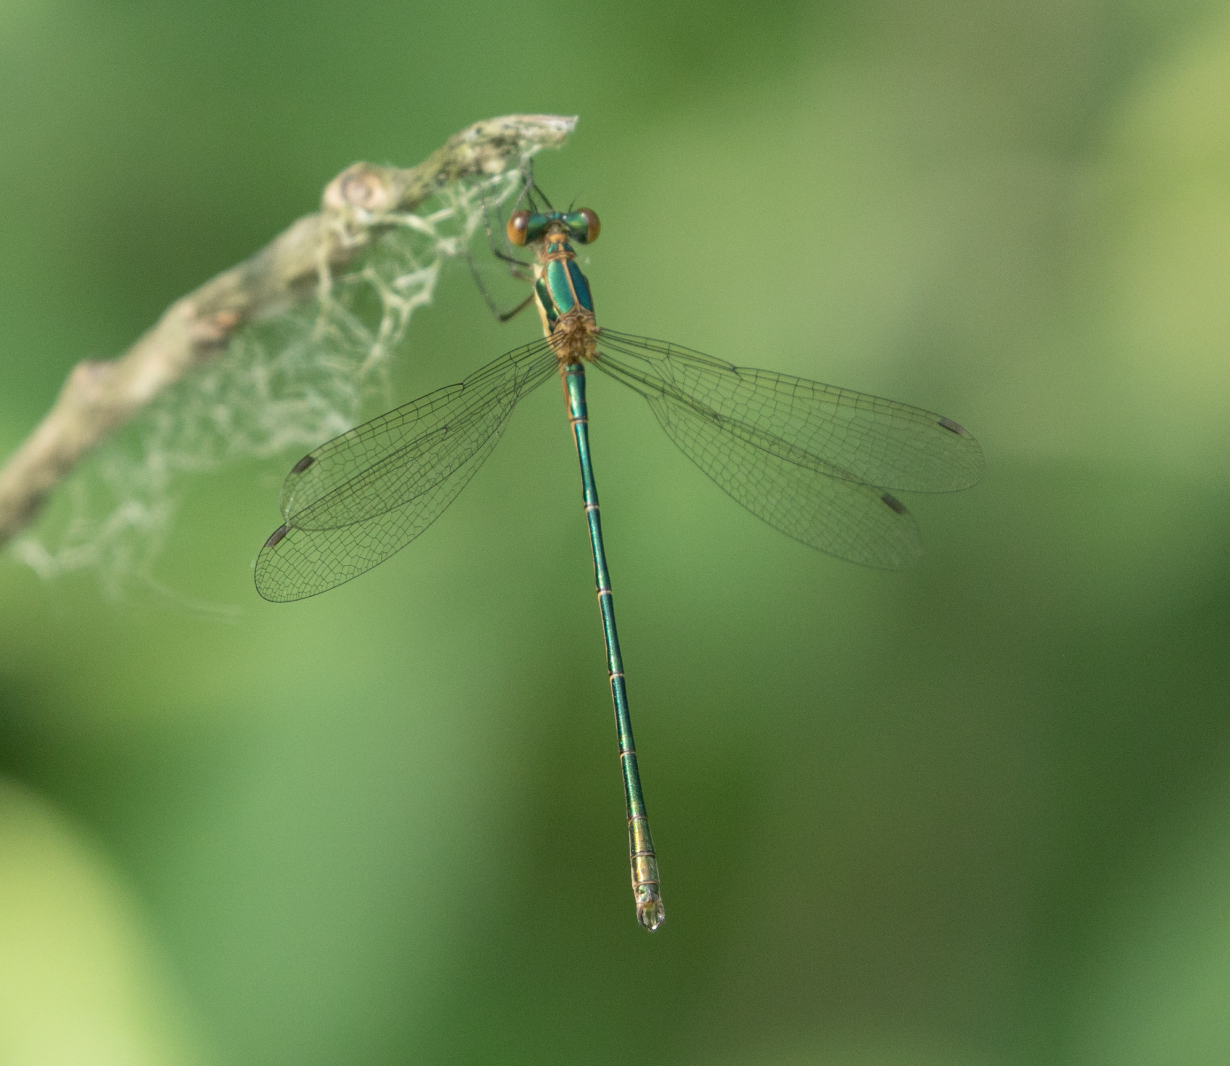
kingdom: Animalia
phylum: Arthropoda
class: Insecta
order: Odonata
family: Lestidae
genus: Lestes
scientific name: Lestes sponsa
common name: Common spreadwing
